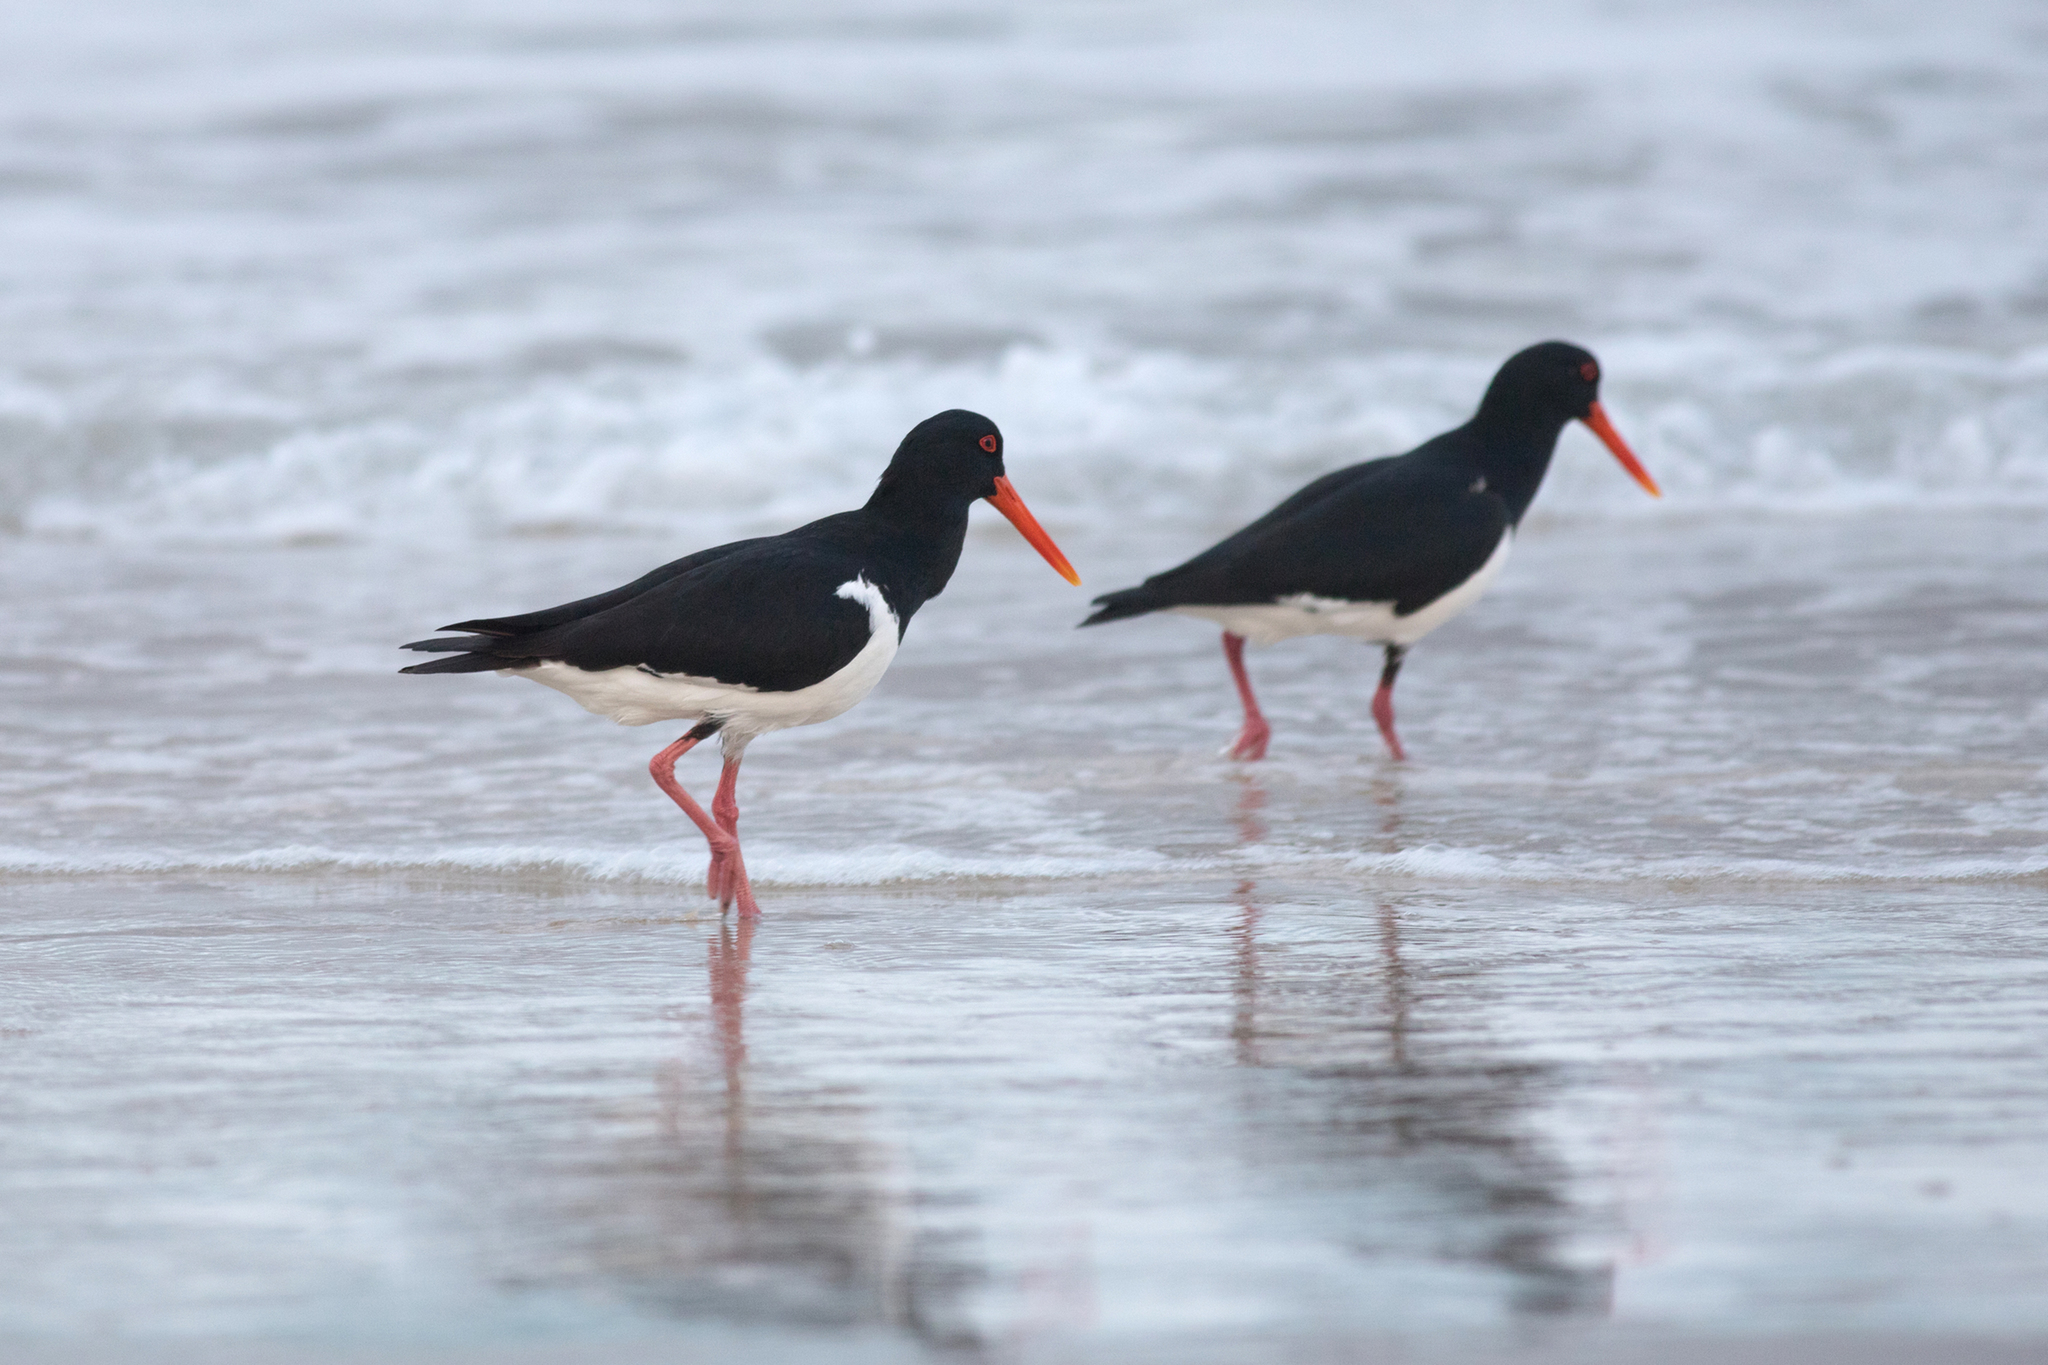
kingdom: Animalia
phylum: Chordata
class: Aves
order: Charadriiformes
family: Haematopodidae
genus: Haematopus
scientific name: Haematopus longirostris
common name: Pied oystercatcher
